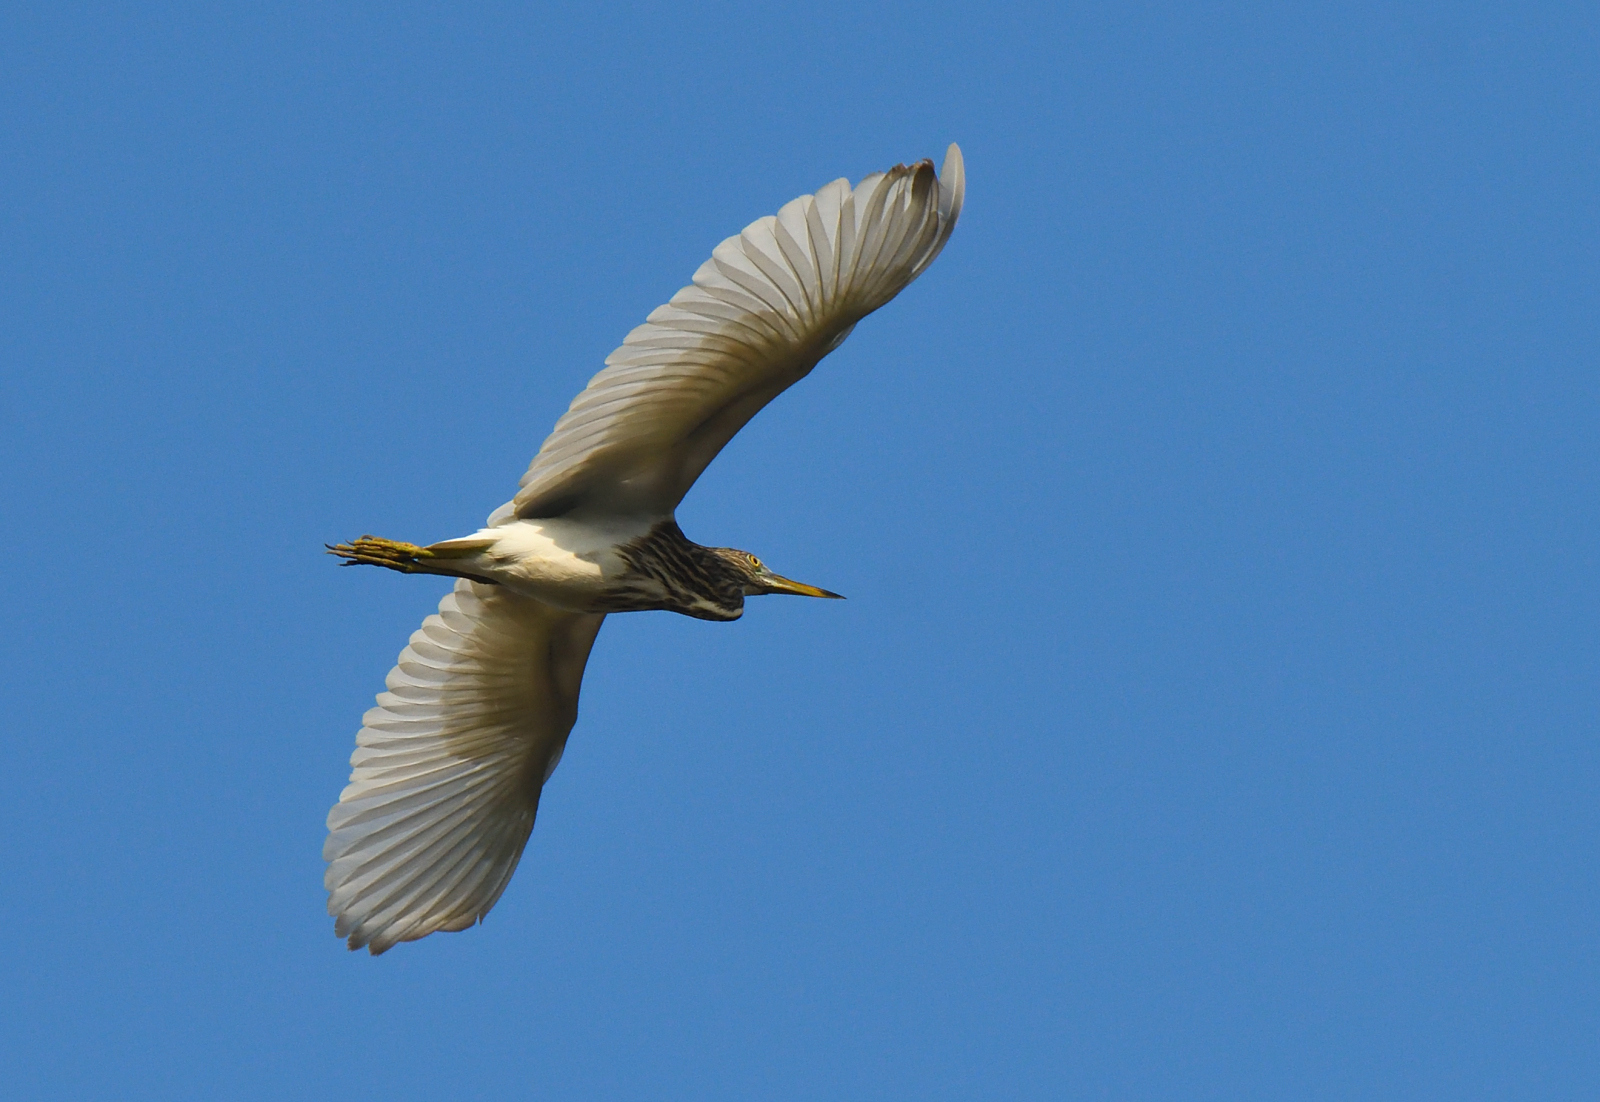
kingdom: Animalia
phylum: Chordata
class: Aves
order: Pelecaniformes
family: Ardeidae
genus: Ardeola
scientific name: Ardeola grayii
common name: Indian pond heron
